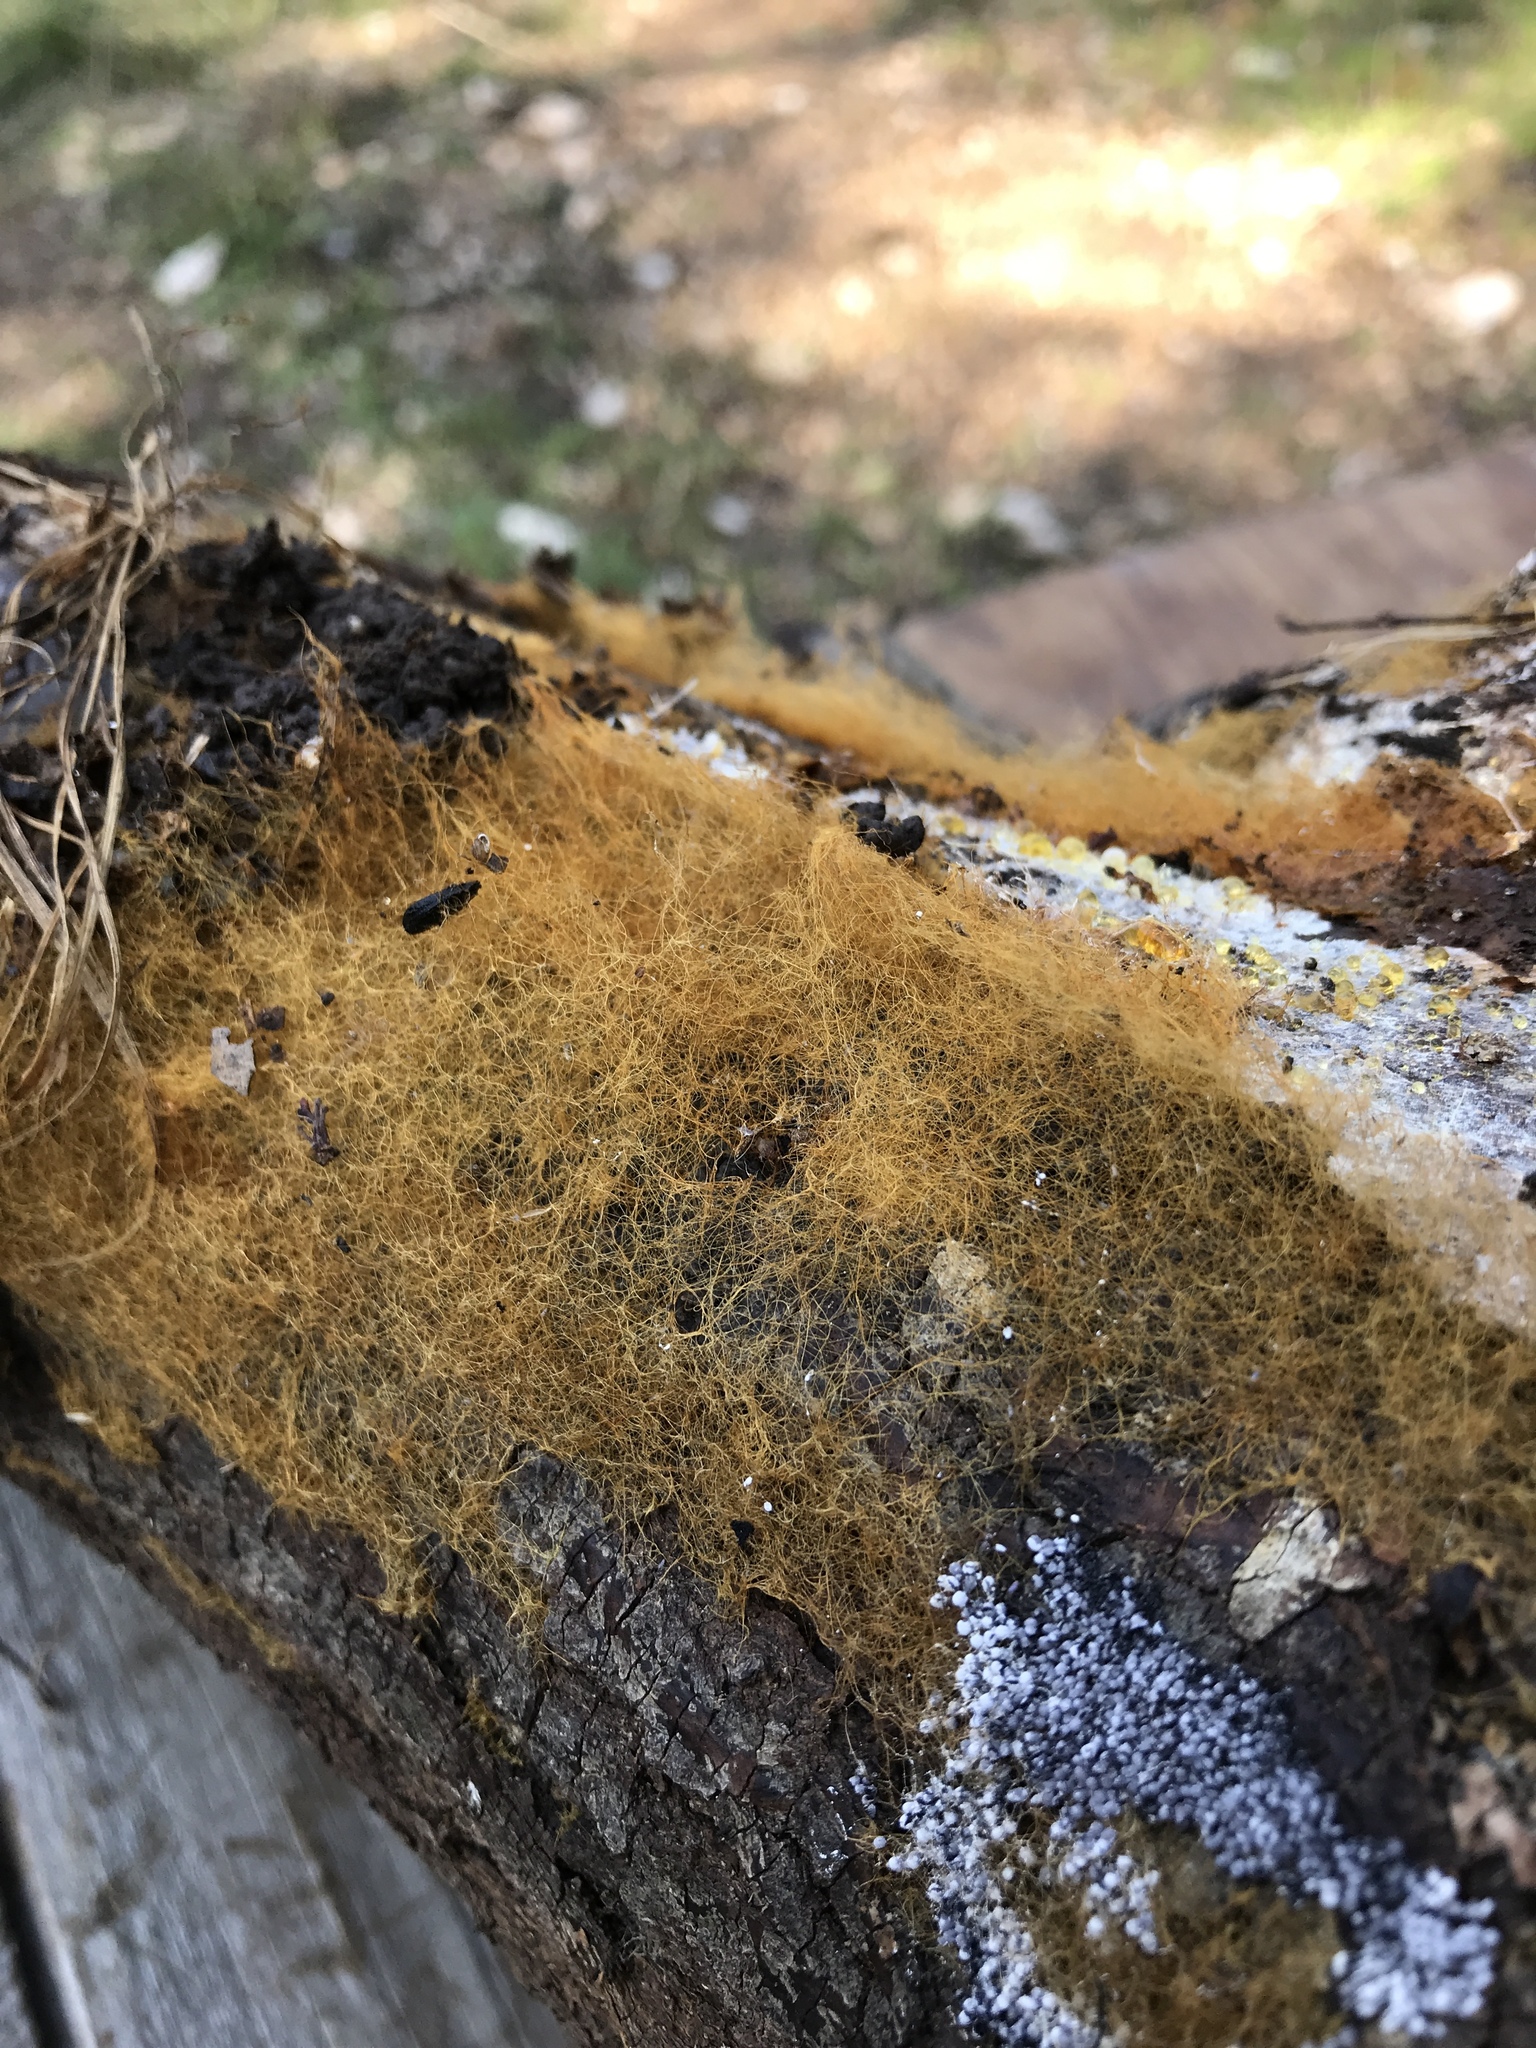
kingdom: Fungi
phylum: Basidiomycota
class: Agaricomycetes
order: Agaricales
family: Psathyrellaceae
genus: Coprinellus
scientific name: Coprinellus domesticus
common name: Firerug inkcap
